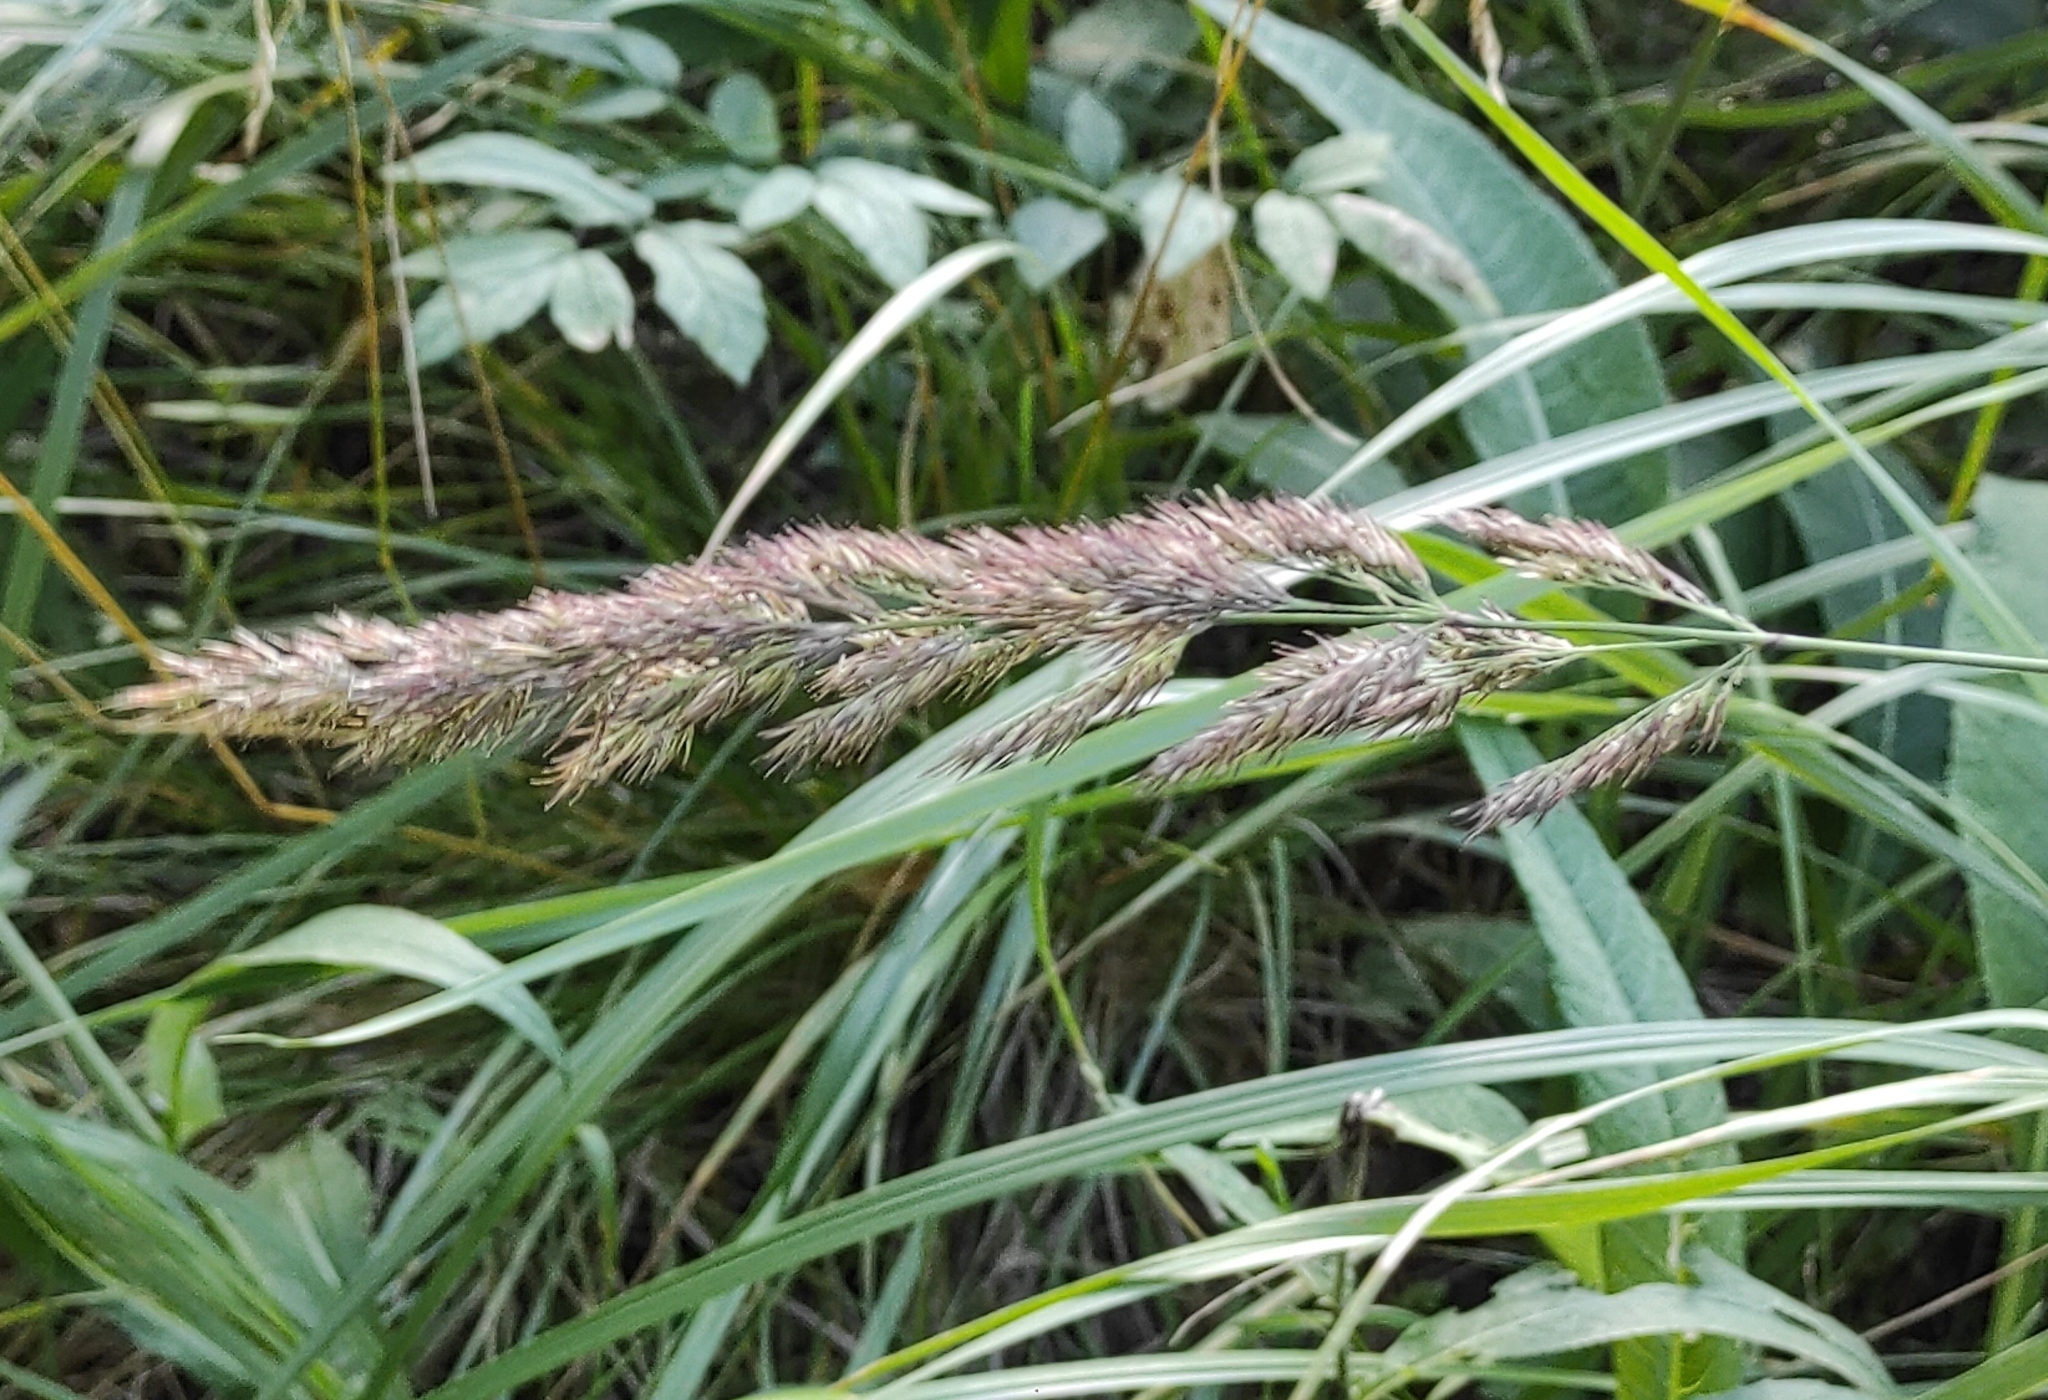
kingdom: Plantae
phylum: Tracheophyta
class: Liliopsida
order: Poales
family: Poaceae
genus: Calamagrostis
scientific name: Calamagrostis epigejos
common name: Wood small-reed
